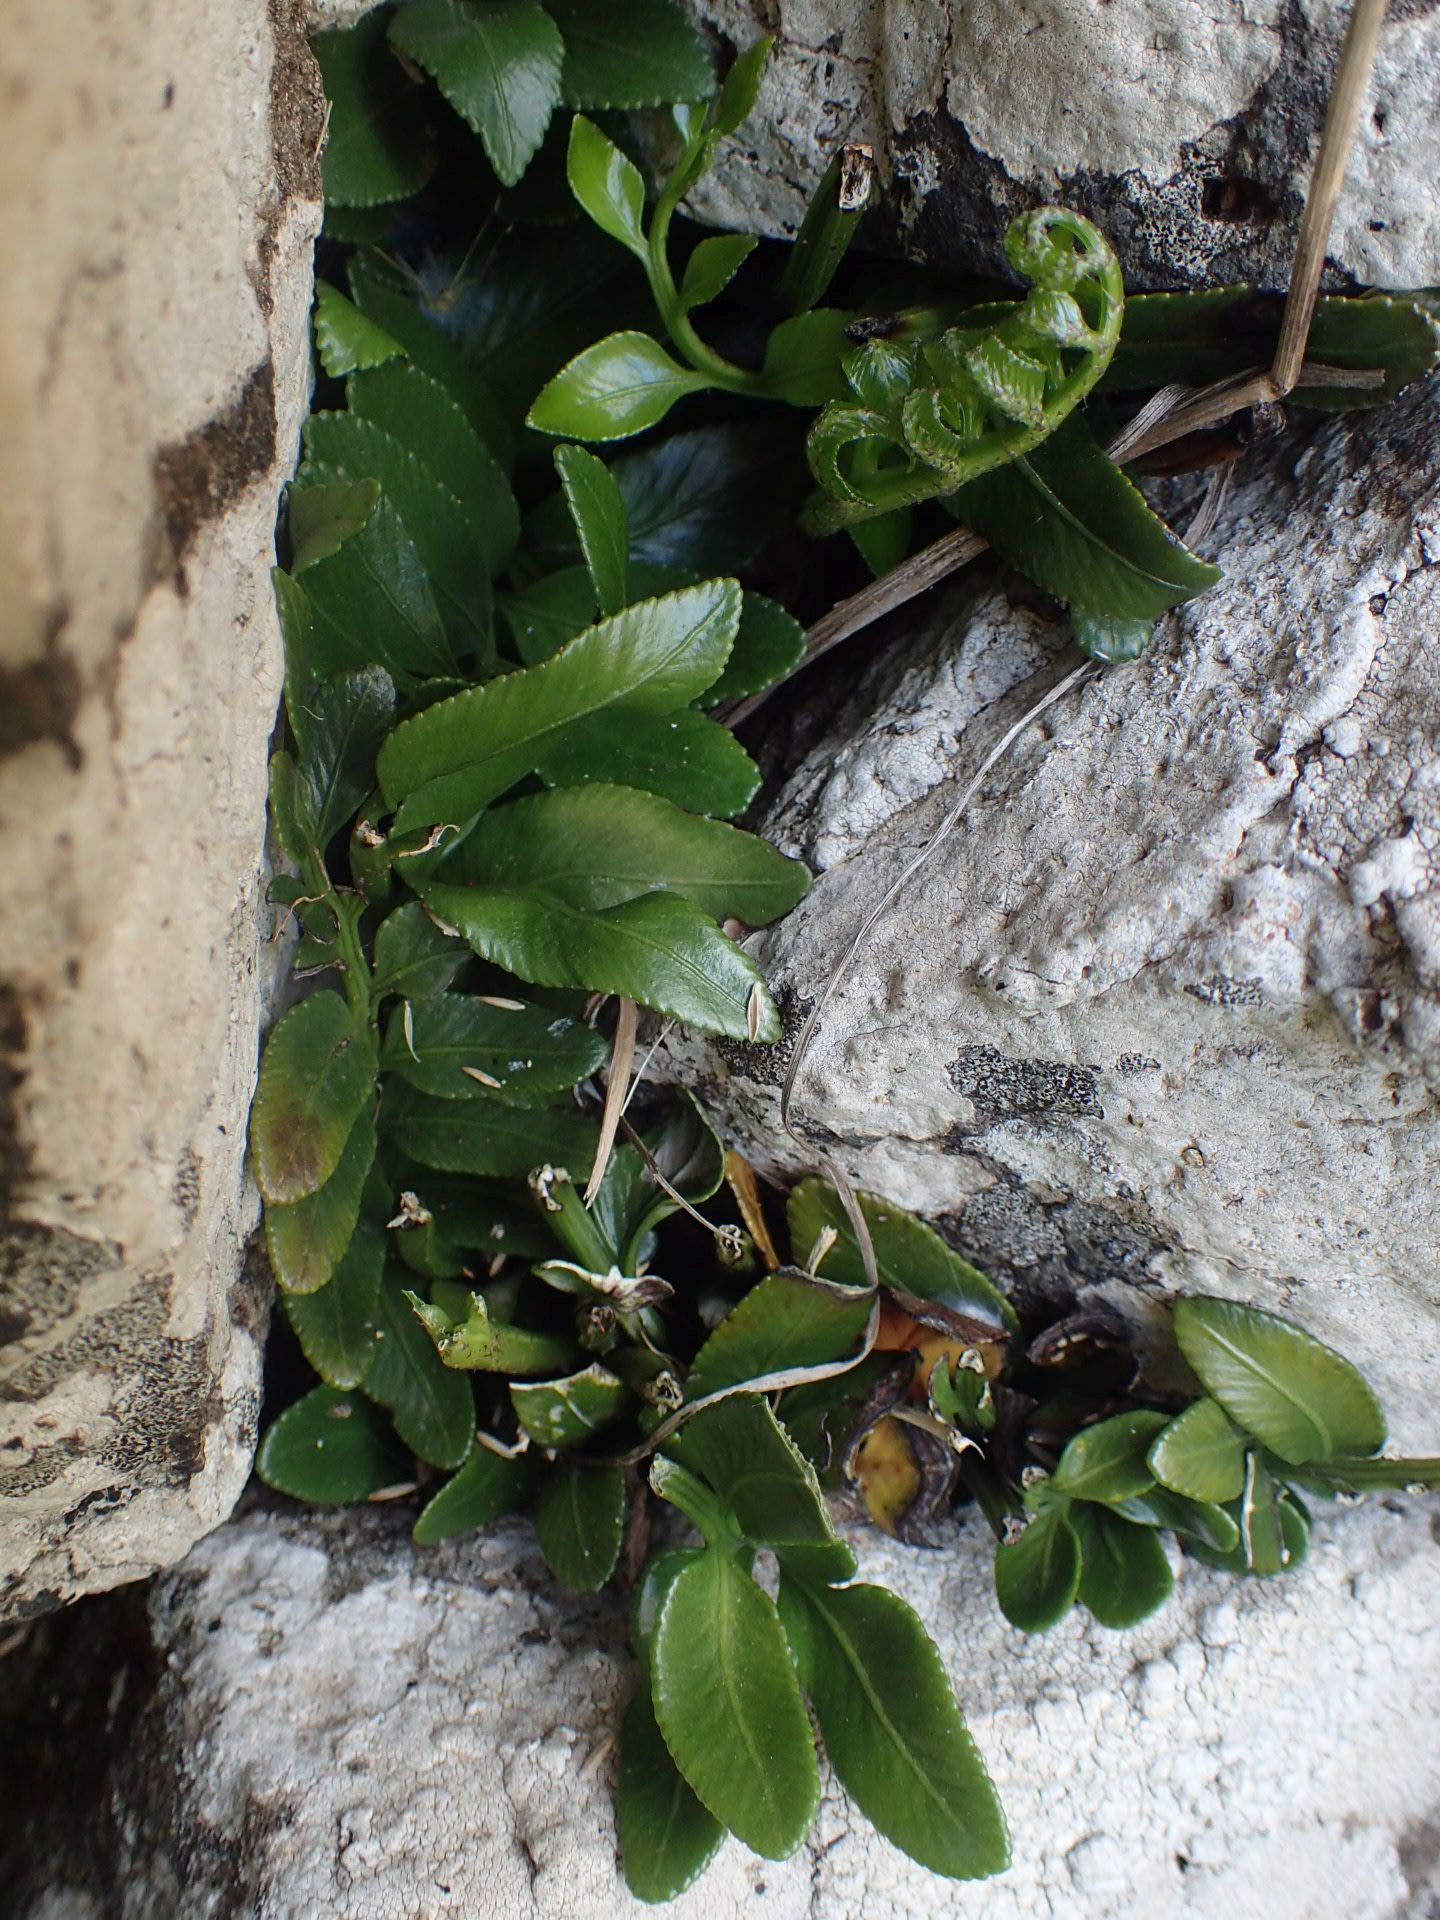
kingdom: Plantae
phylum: Tracheophyta
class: Polypodiopsida
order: Polypodiales
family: Aspleniaceae
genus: Asplenium
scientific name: Asplenium obtusatum
